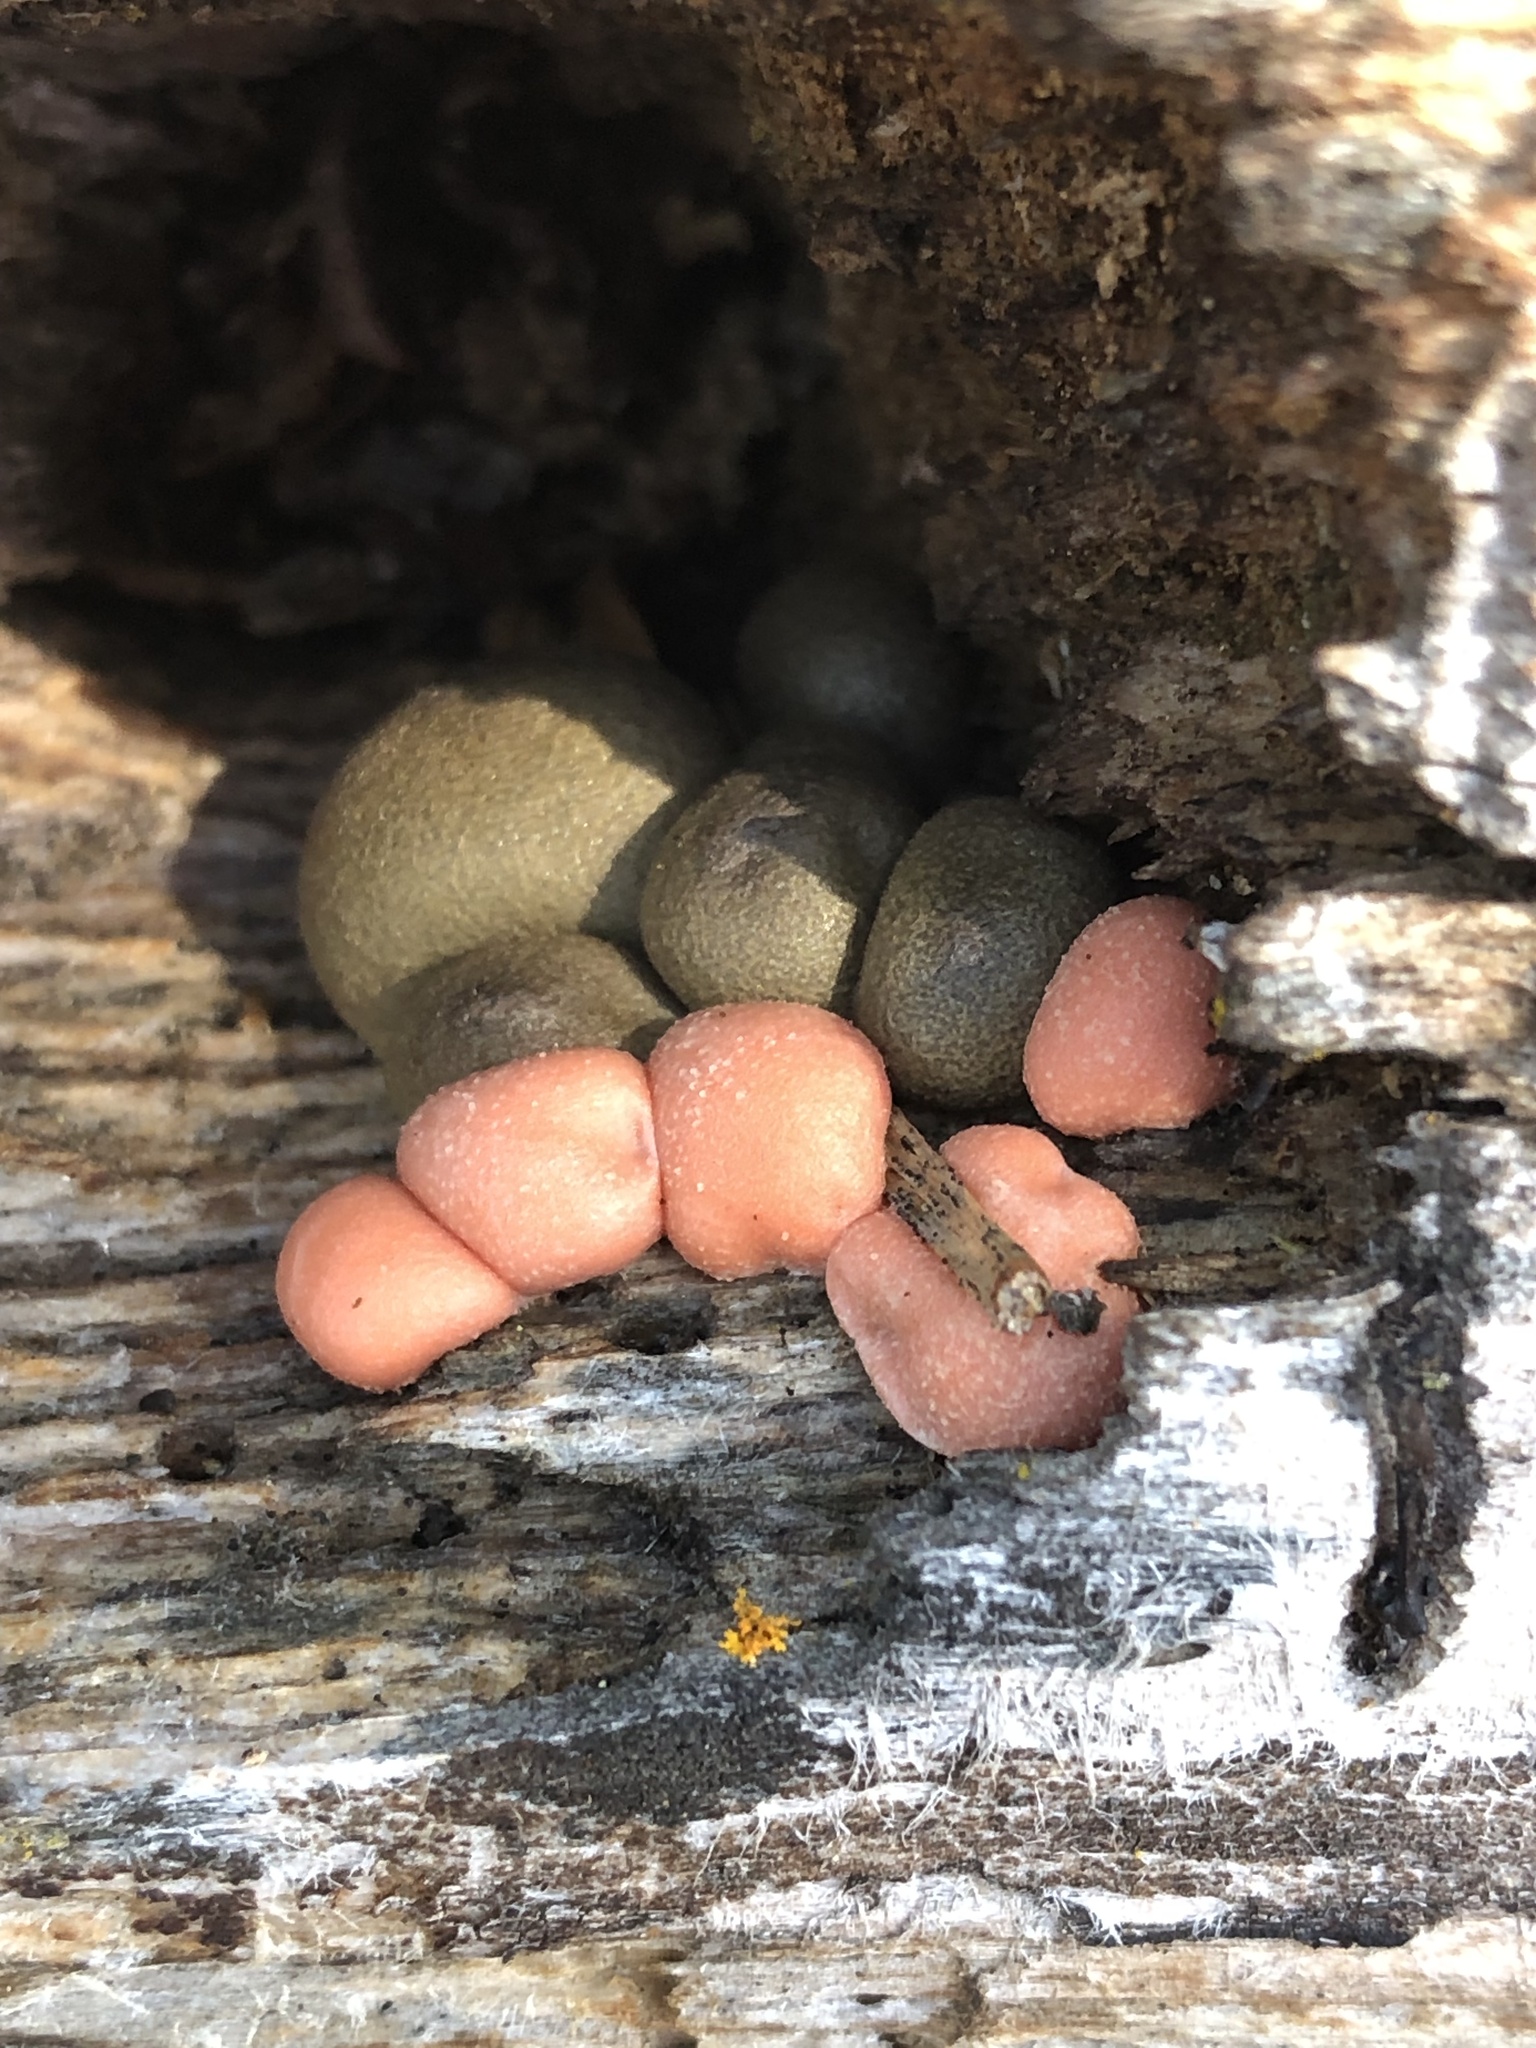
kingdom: Protozoa
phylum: Mycetozoa
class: Myxomycetes
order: Cribrariales
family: Tubiferaceae
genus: Lycogala
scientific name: Lycogala epidendrum
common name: Wolf's milk
